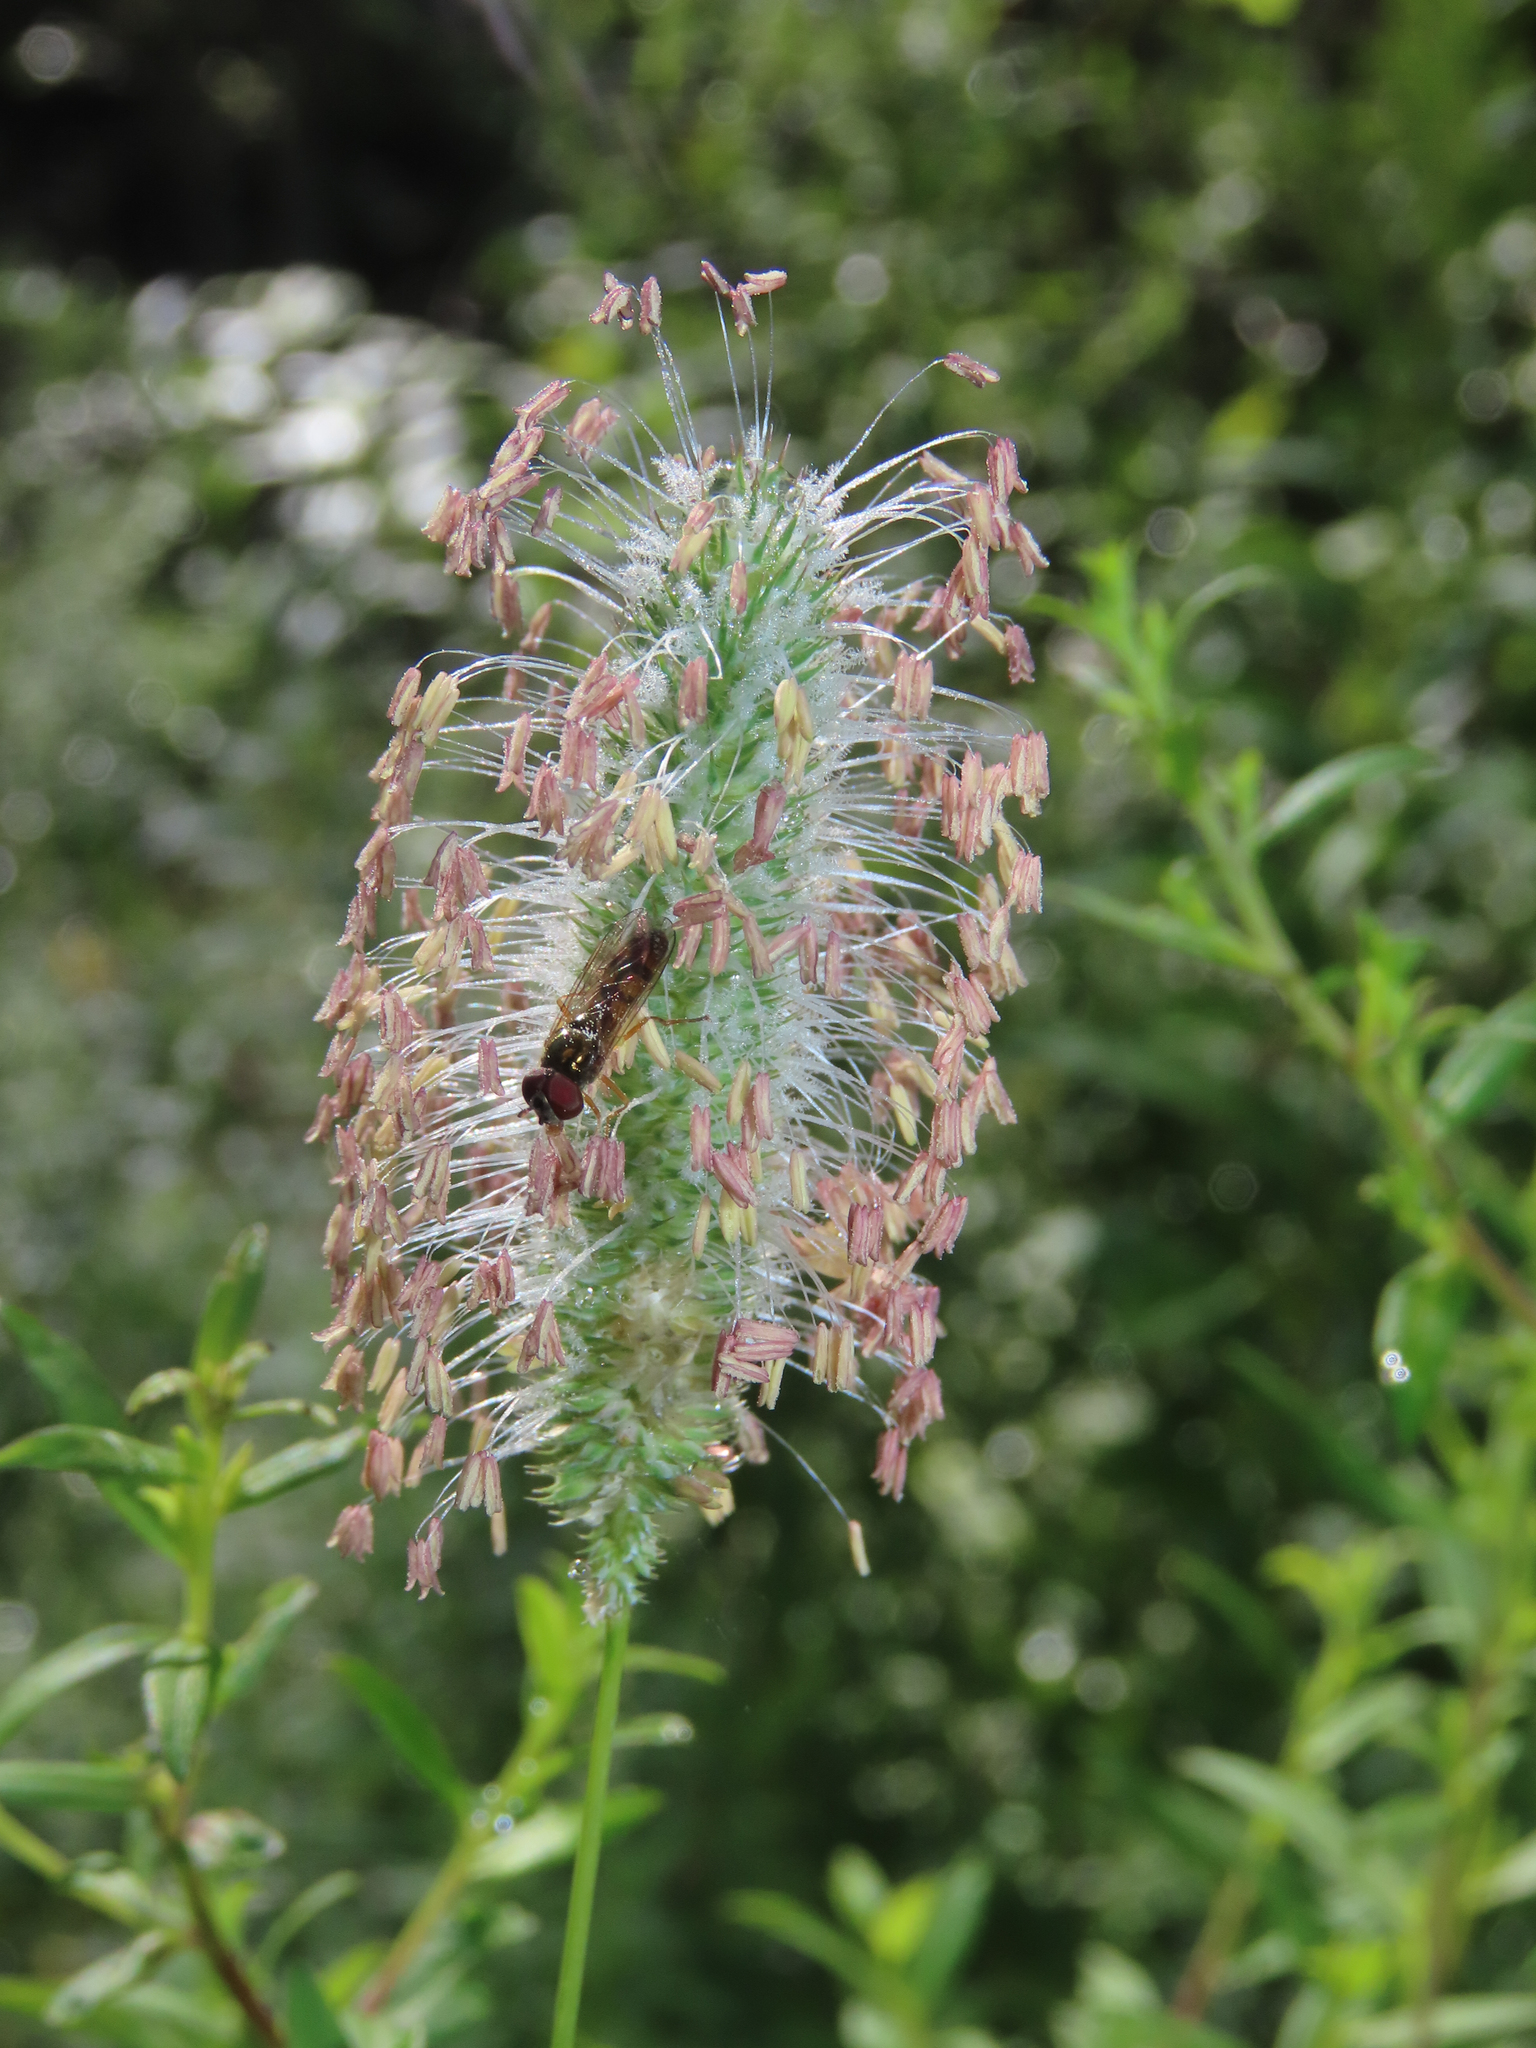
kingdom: Plantae
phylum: Tracheophyta
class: Liliopsida
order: Poales
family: Poaceae
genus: Phleum
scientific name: Phleum pratense
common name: Timothy grass
